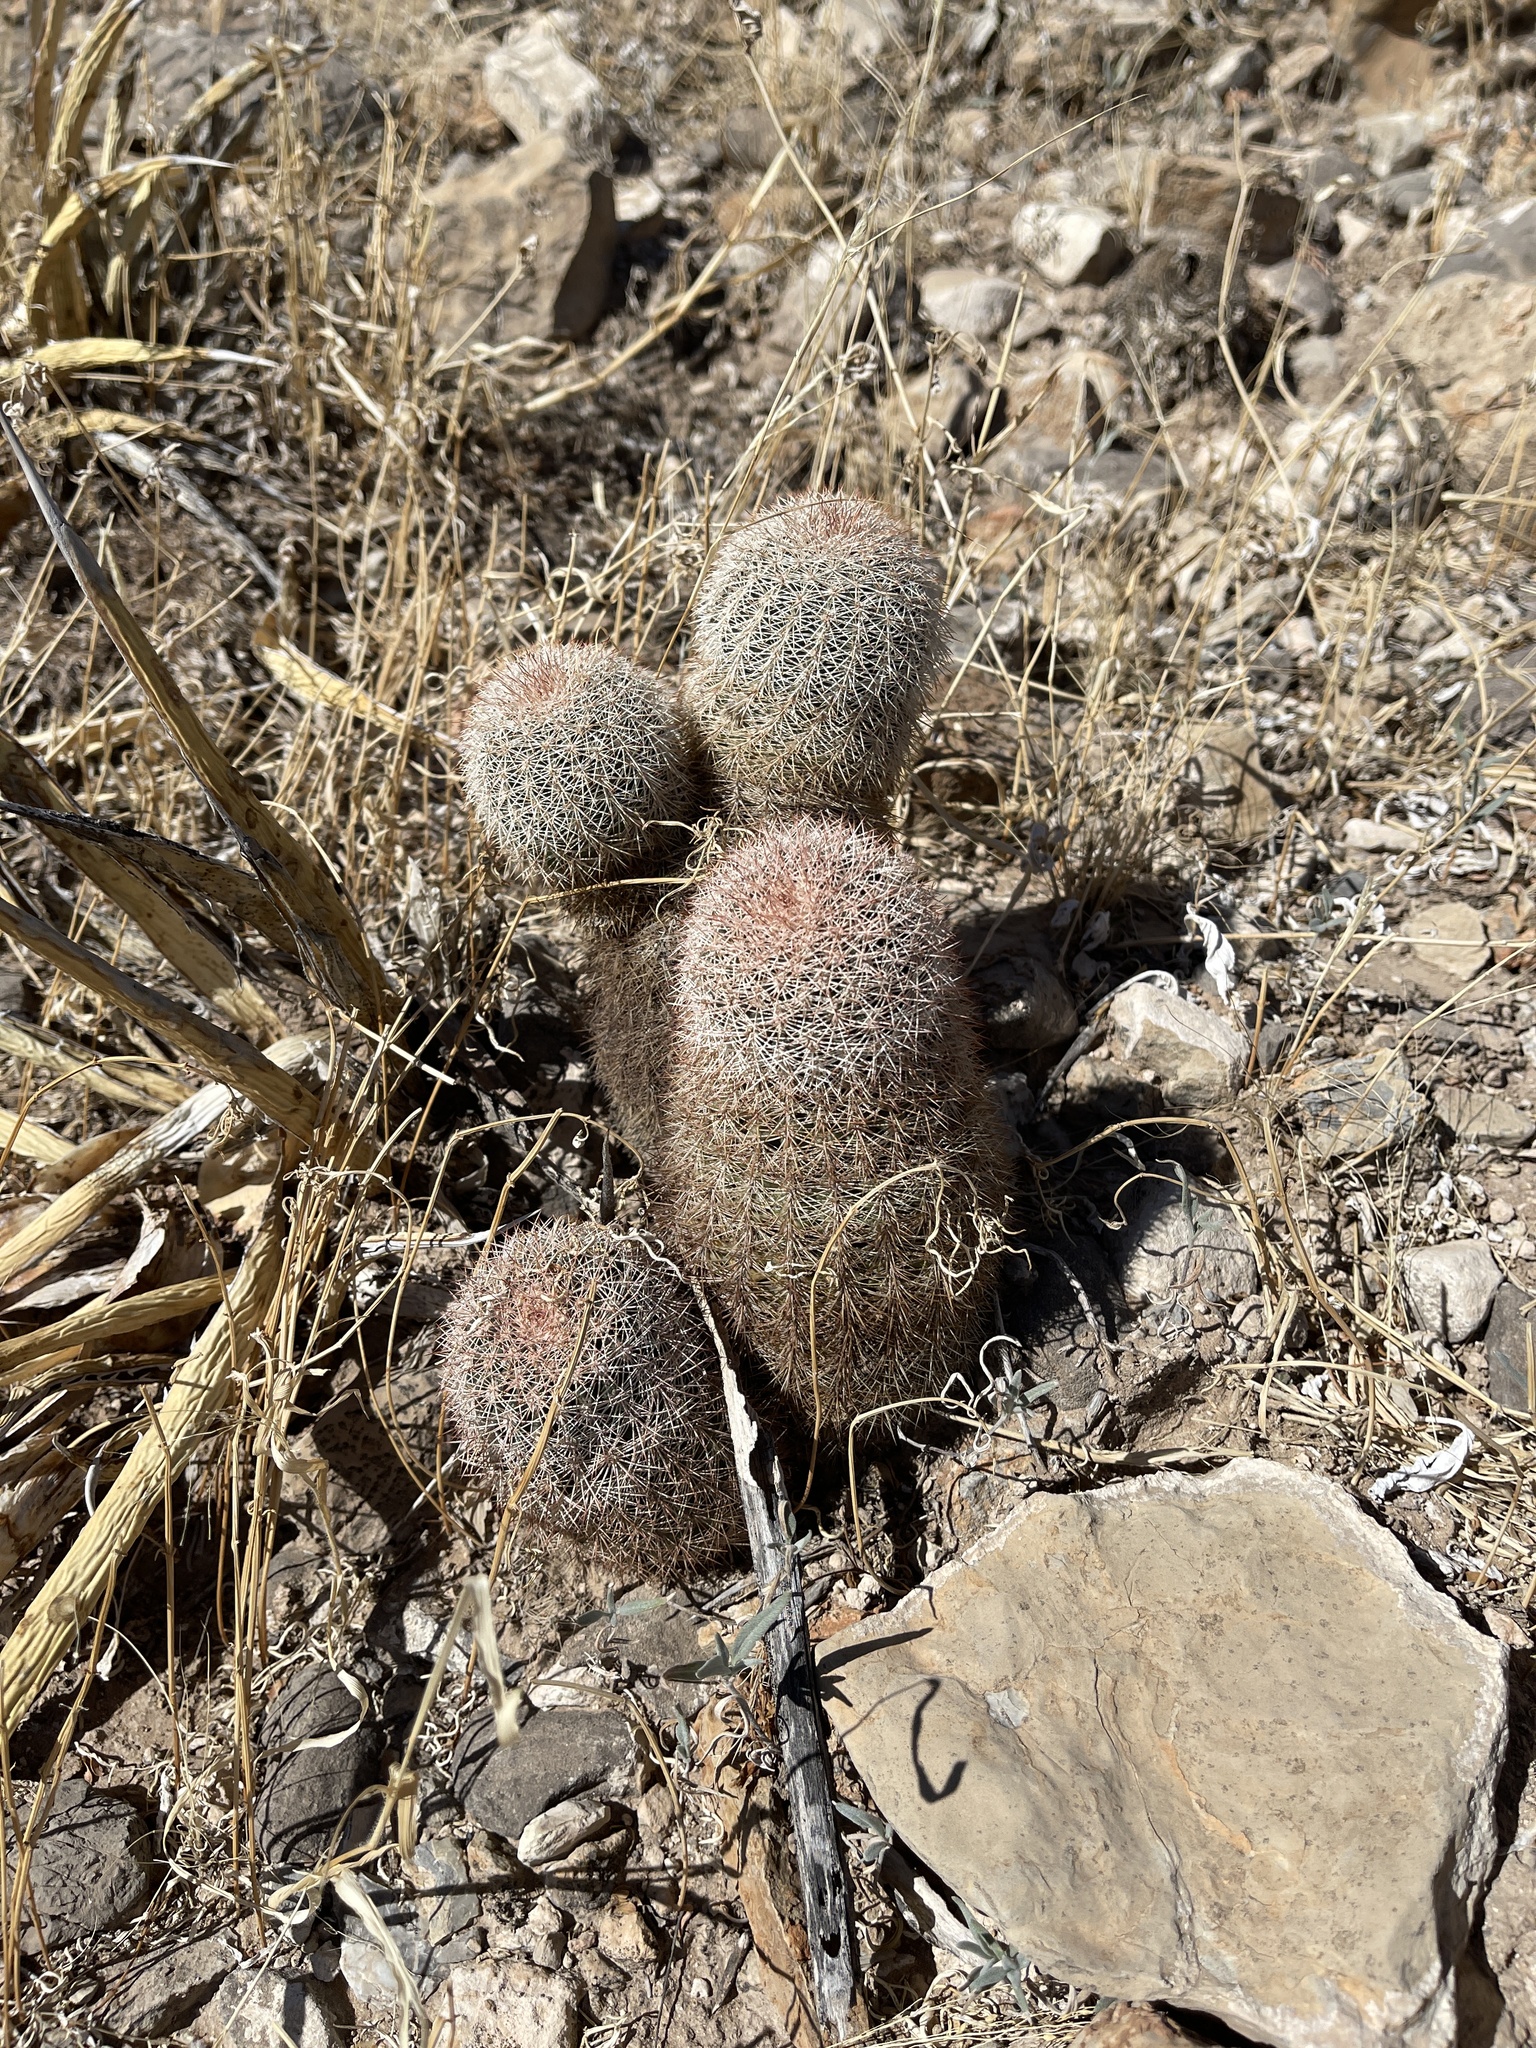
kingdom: Plantae
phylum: Tracheophyta
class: Magnoliopsida
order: Caryophyllales
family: Cactaceae
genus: Echinocereus
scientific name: Echinocereus dasyacanthus
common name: Spiny hedgehog cactus
